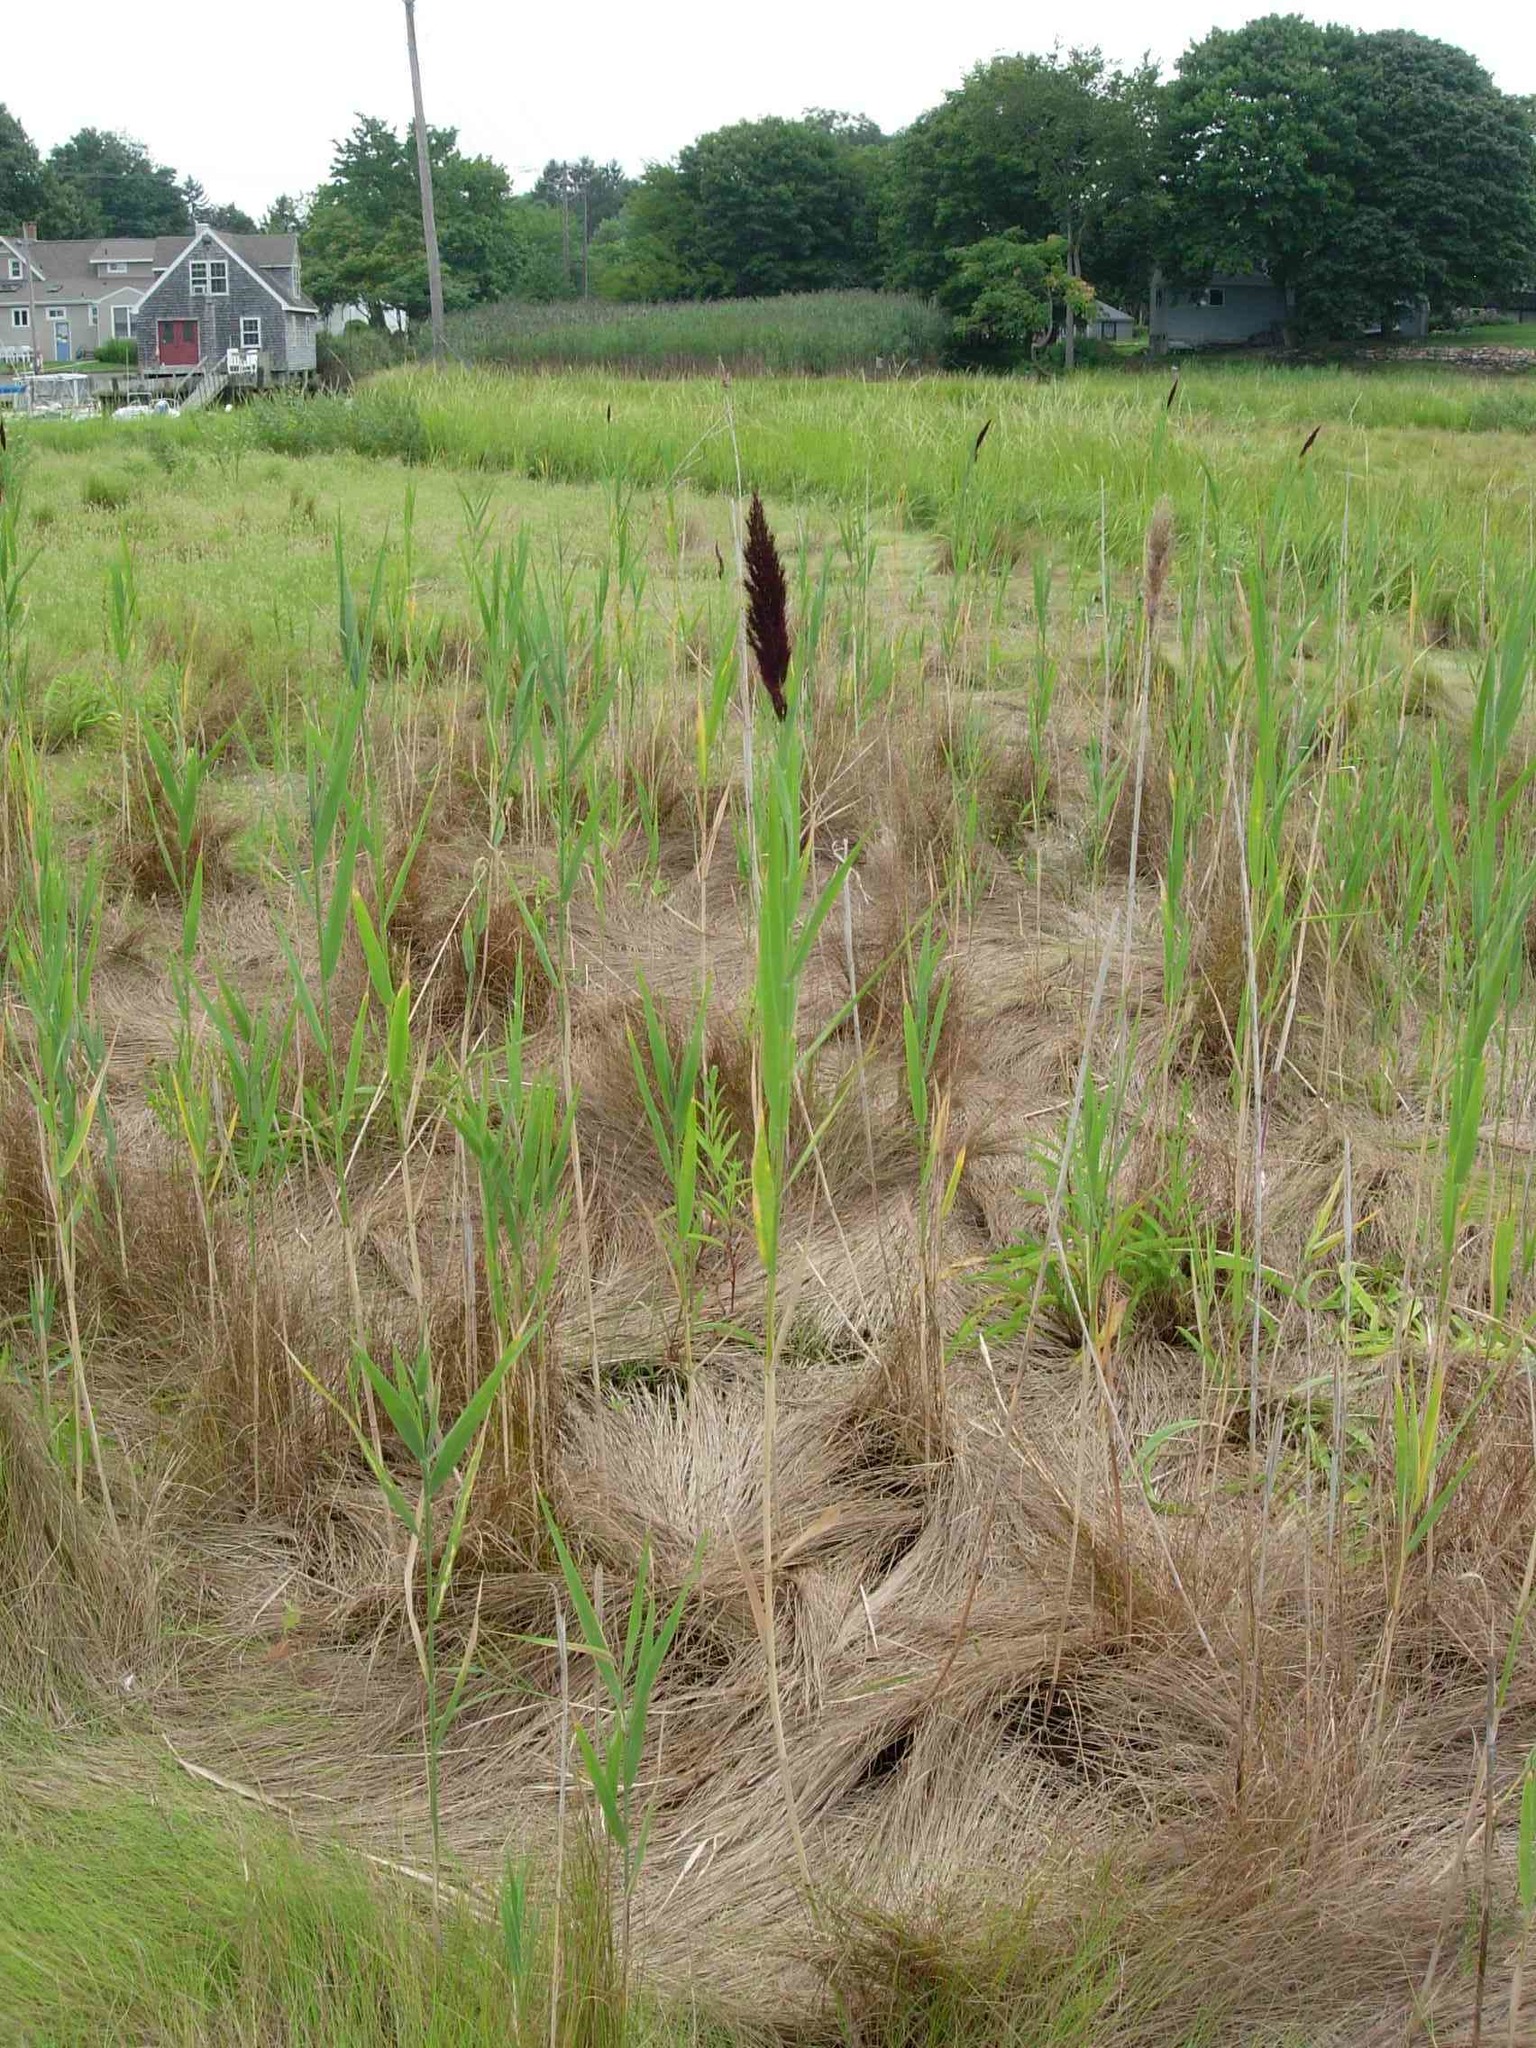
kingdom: Plantae
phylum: Tracheophyta
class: Liliopsida
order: Poales
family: Poaceae
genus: Phragmites
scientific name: Phragmites australis
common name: Common reed
